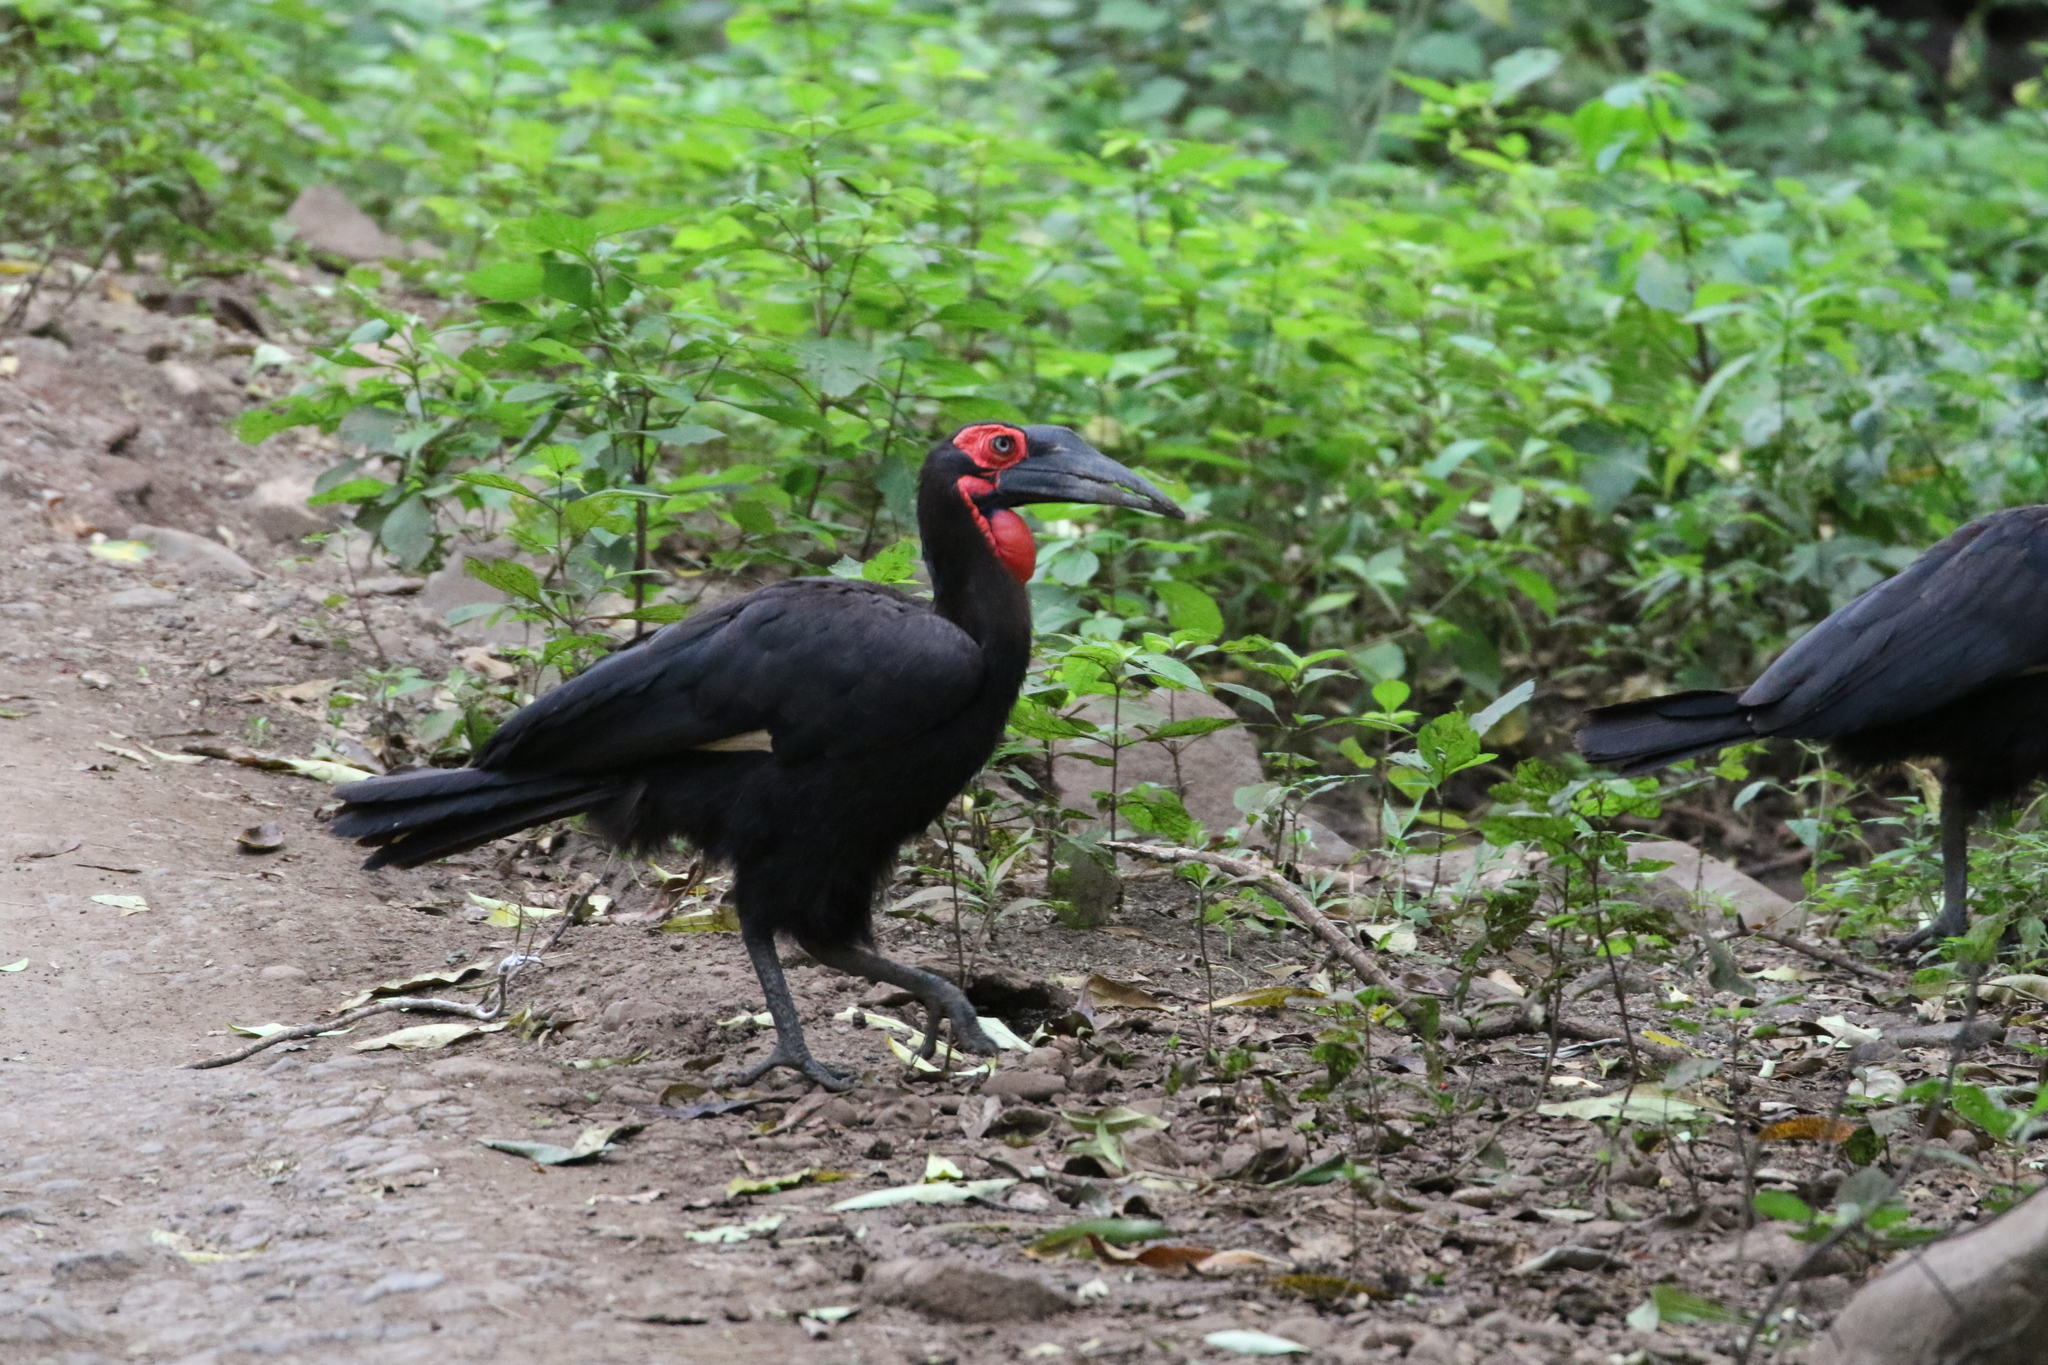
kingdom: Animalia
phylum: Chordata
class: Aves
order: Bucerotiformes
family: Bucorvidae
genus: Bucorvus
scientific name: Bucorvus leadbeateri
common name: Southern ground-hornbill
